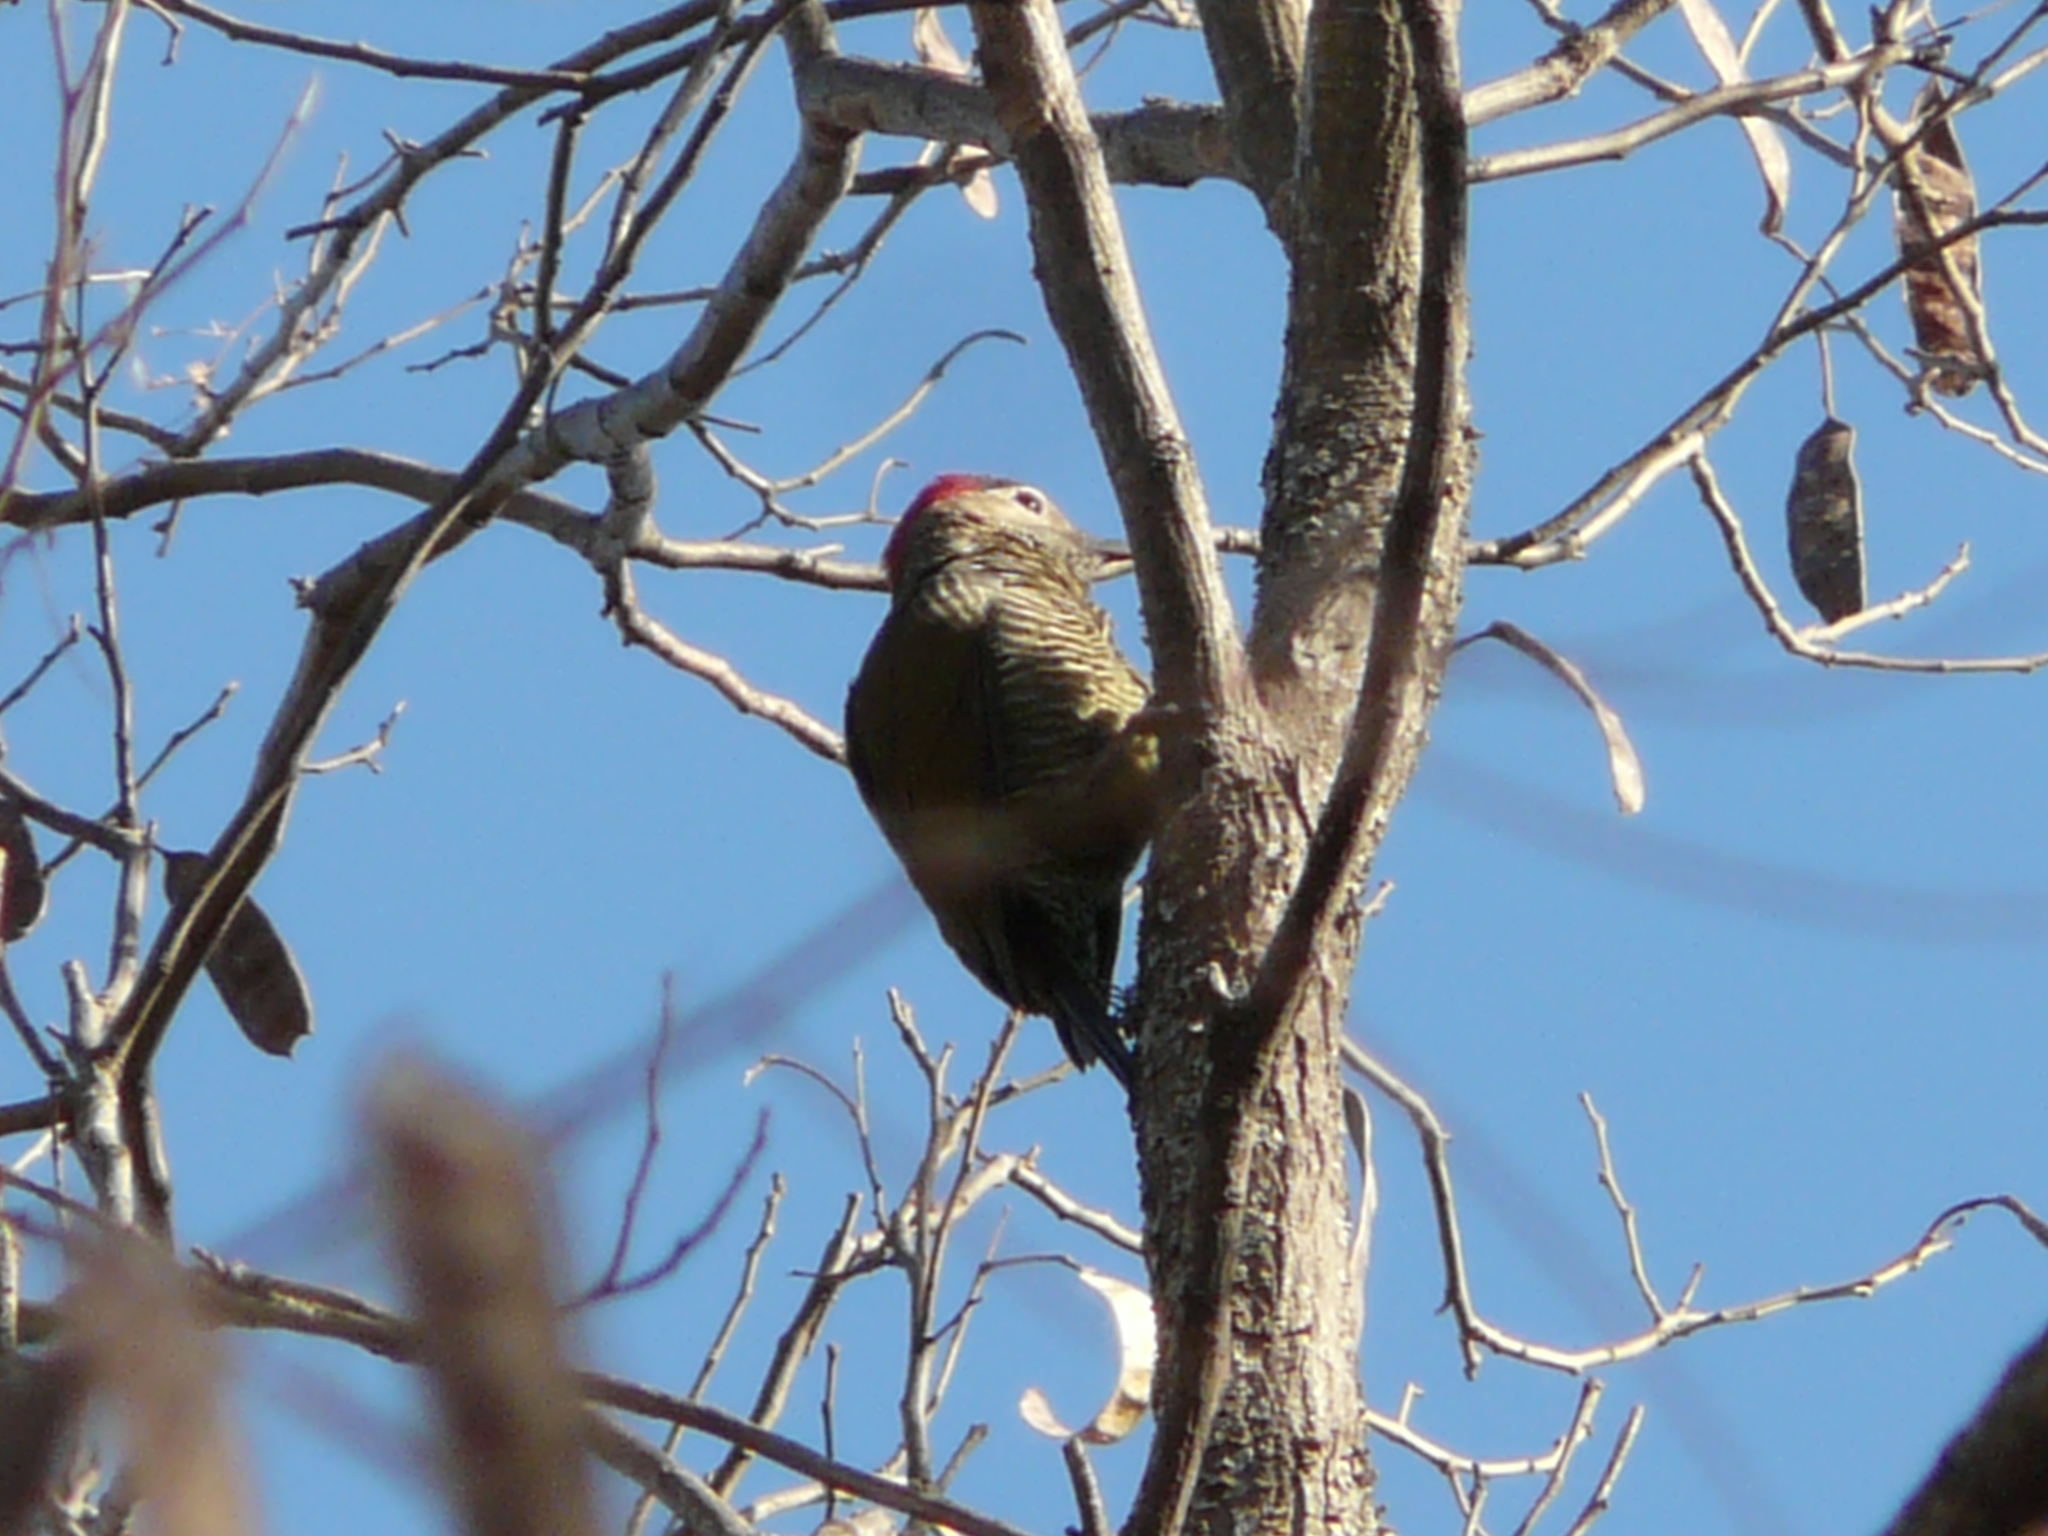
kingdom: Animalia
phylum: Chordata
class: Aves
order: Piciformes
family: Picidae
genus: Colaptes
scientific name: Colaptes melanochloros
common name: Green-barred woodpecker
